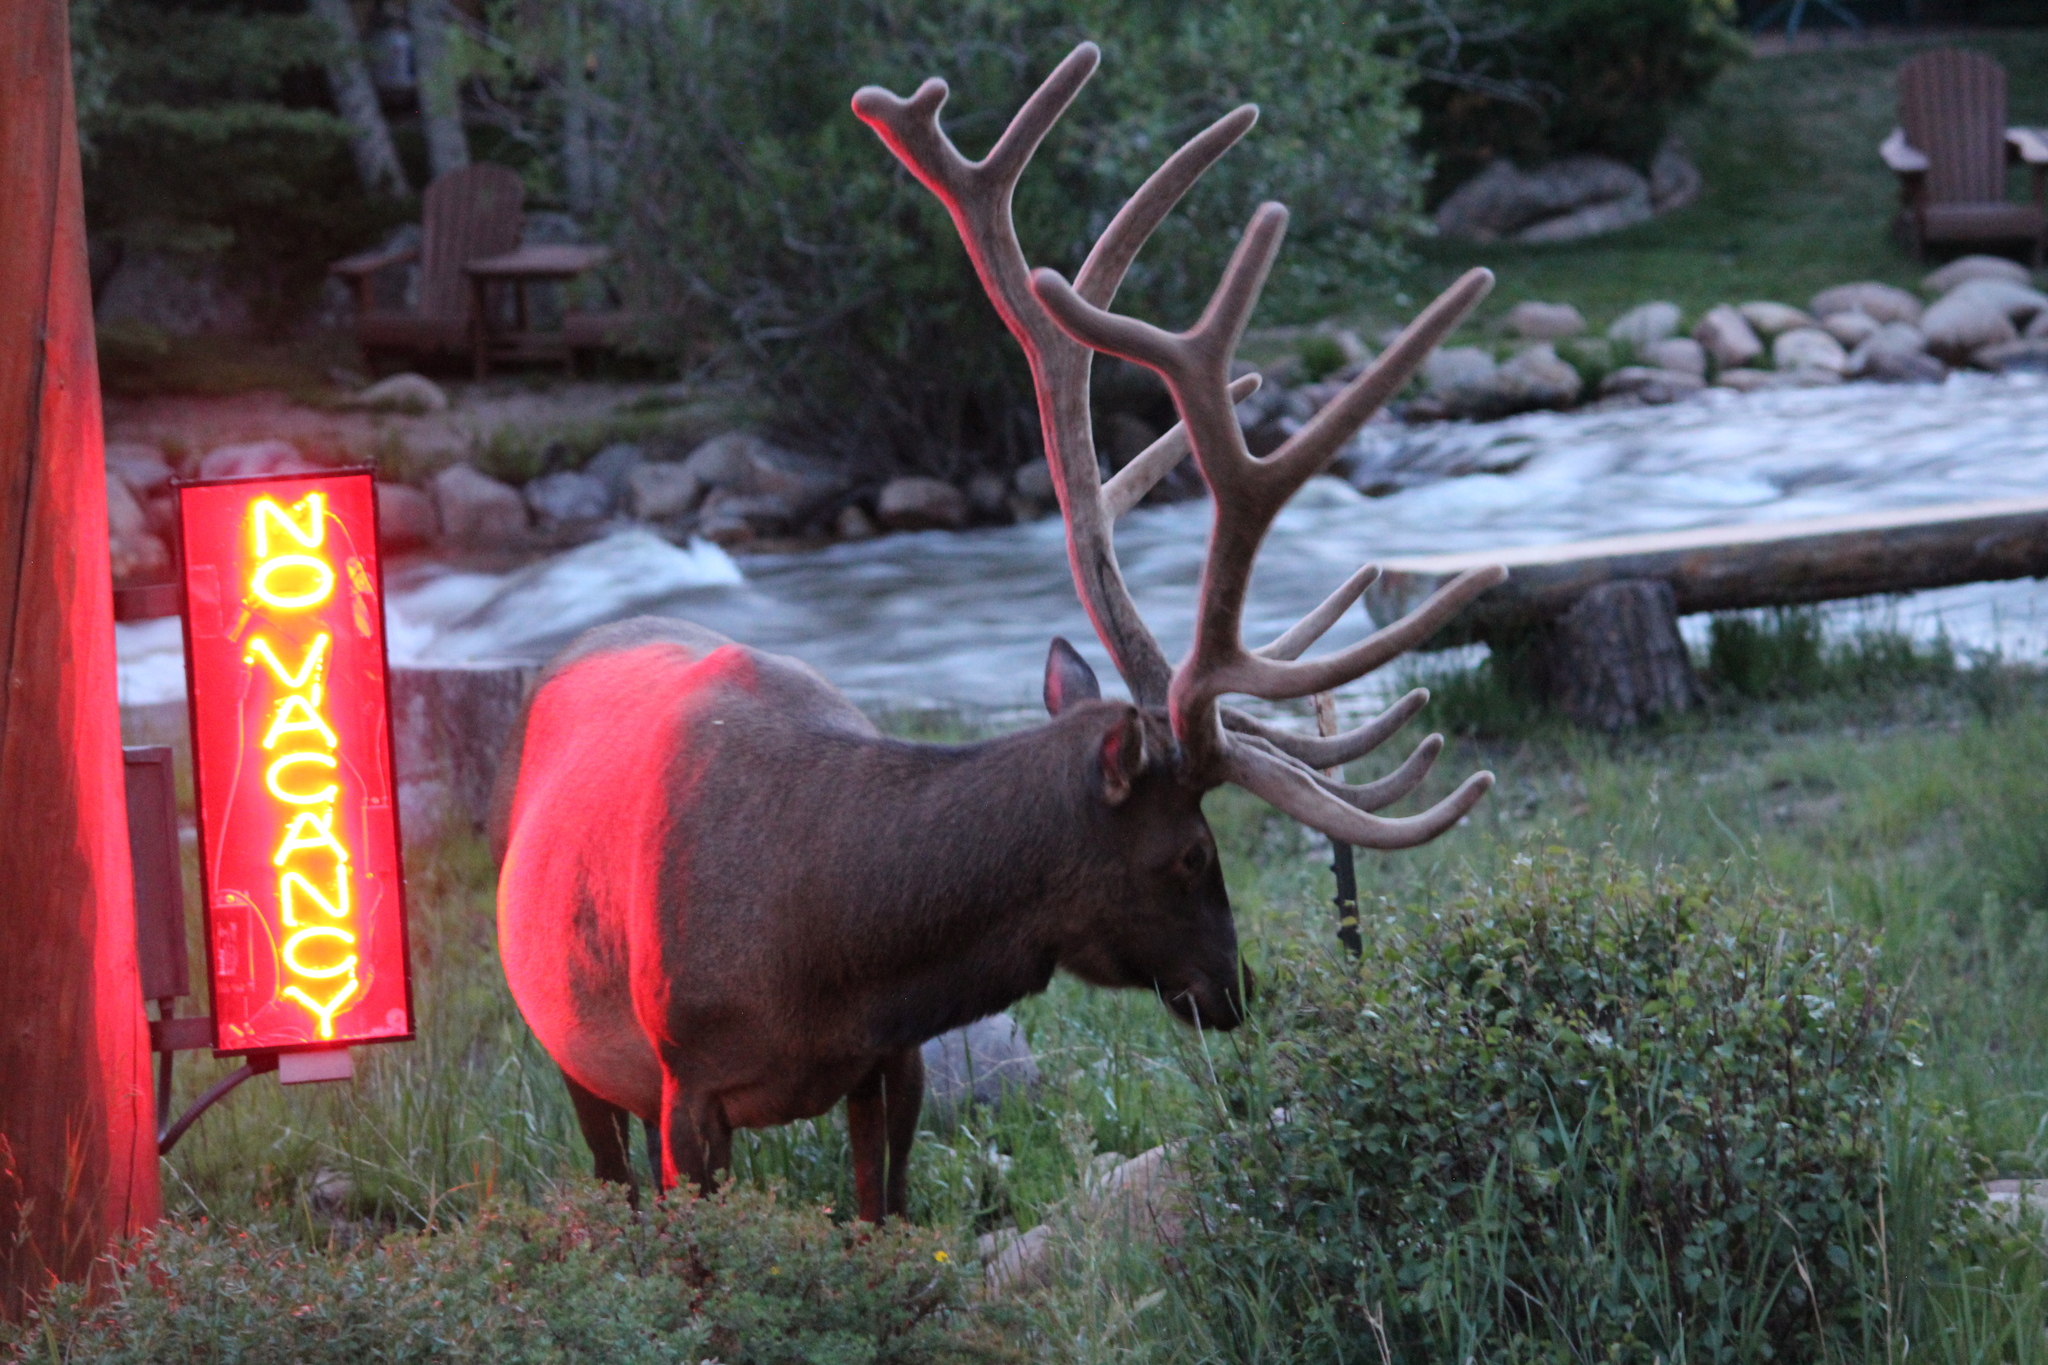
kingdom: Animalia
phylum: Chordata
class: Mammalia
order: Artiodactyla
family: Cervidae
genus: Cervus
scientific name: Cervus elaphus
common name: Red deer
